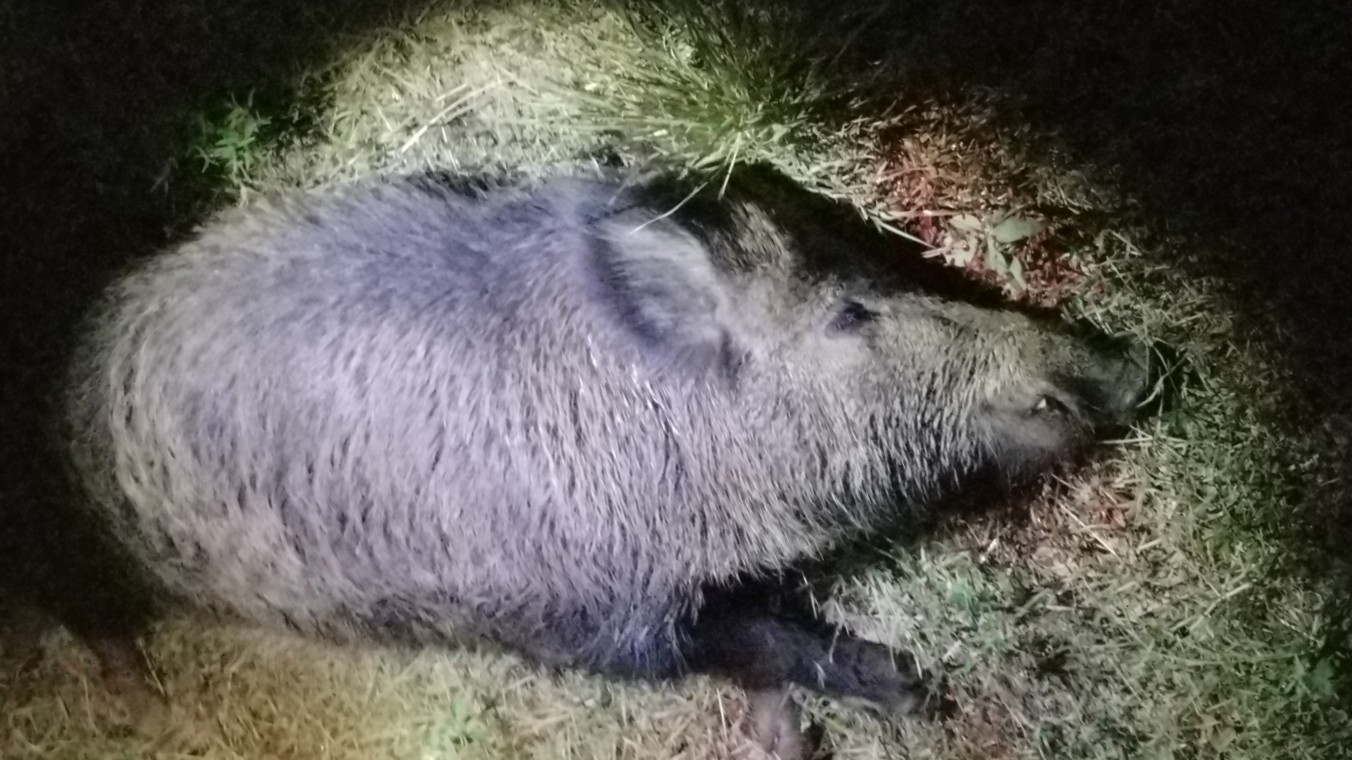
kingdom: Animalia
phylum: Chordata
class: Mammalia
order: Artiodactyla
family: Suidae
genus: Sus
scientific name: Sus scrofa
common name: Wild boar
